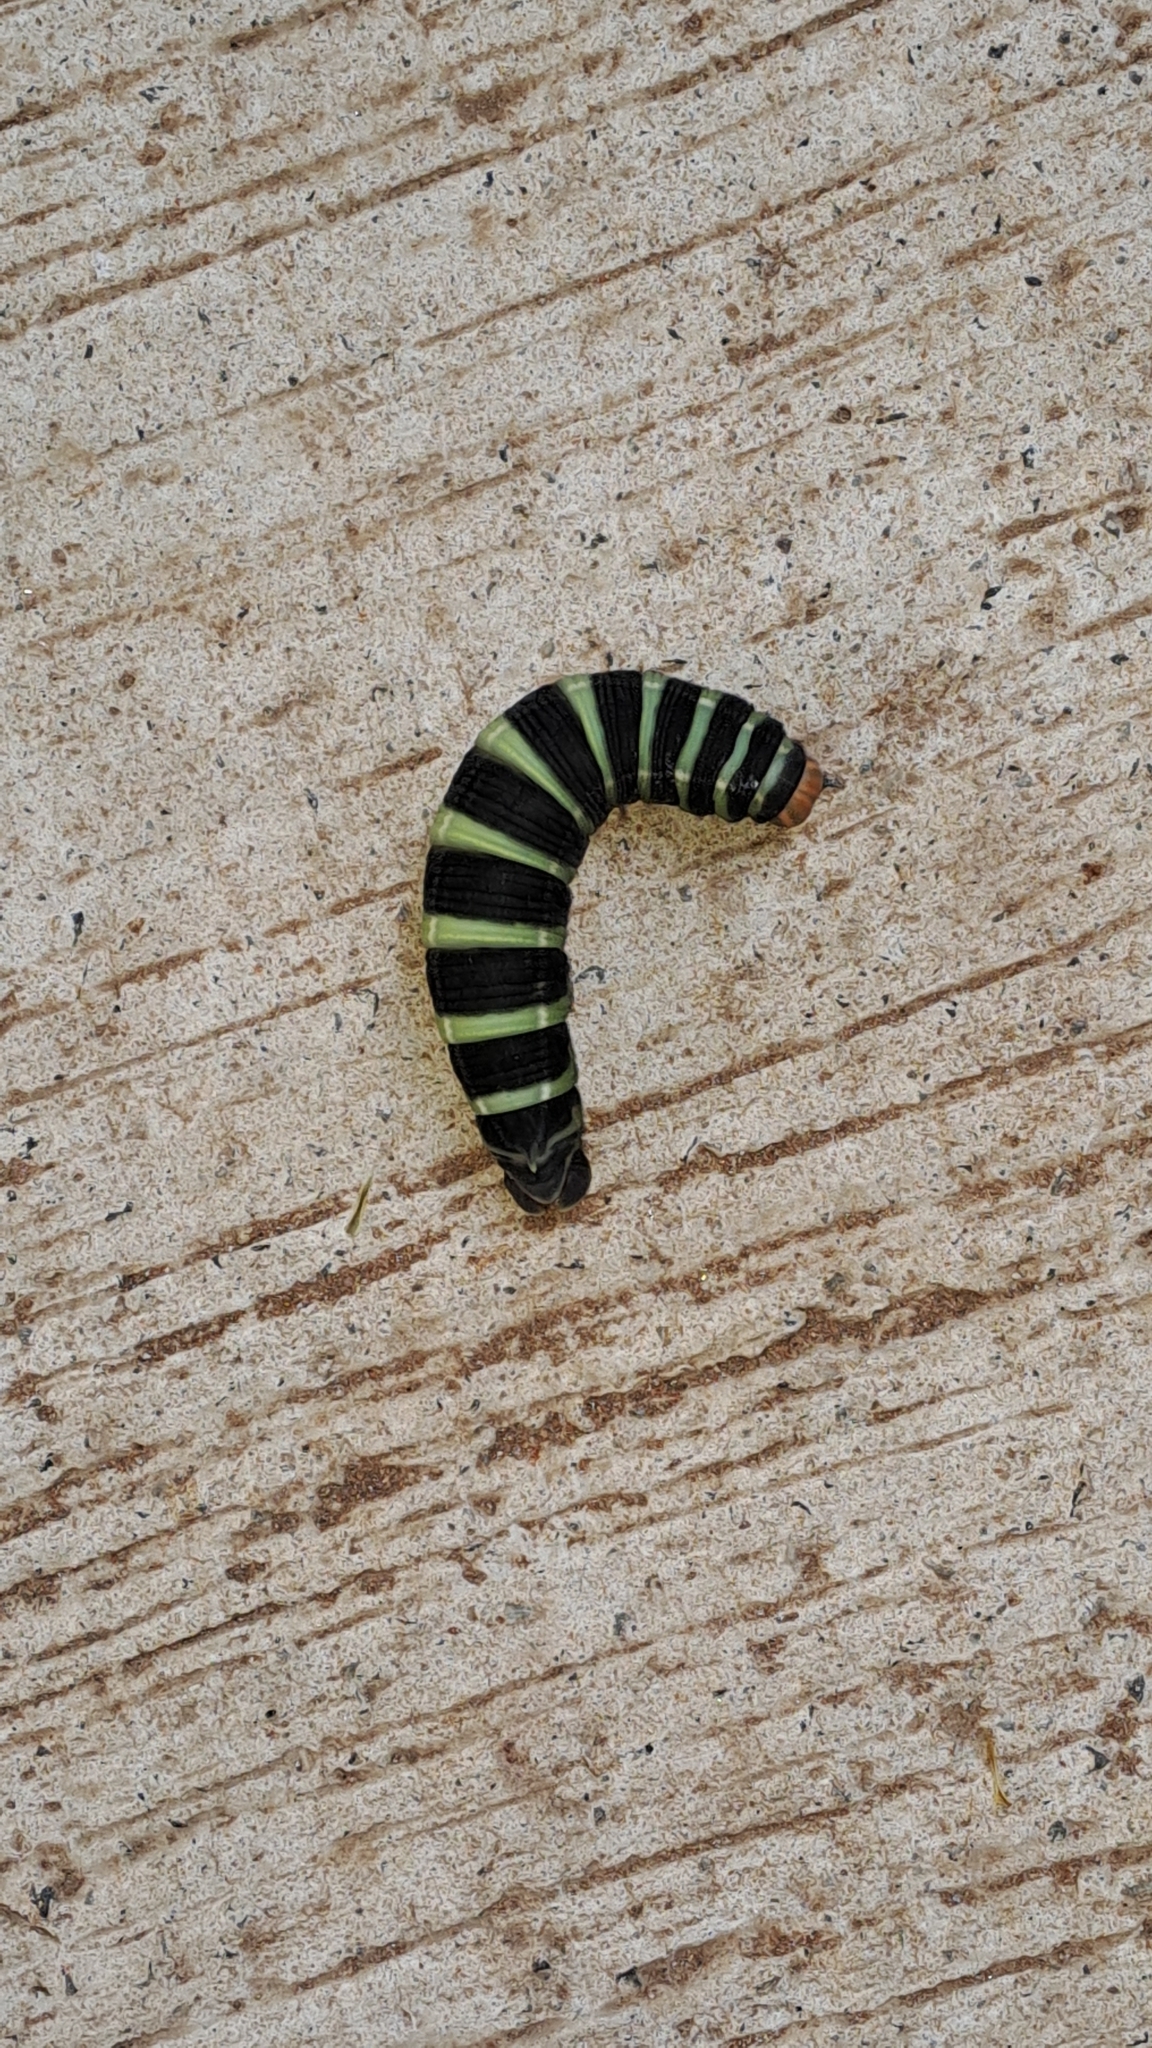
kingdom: Animalia
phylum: Arthropoda
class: Insecta
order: Lepidoptera
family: Sphingidae
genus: Pachylia
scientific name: Pachylia syces
